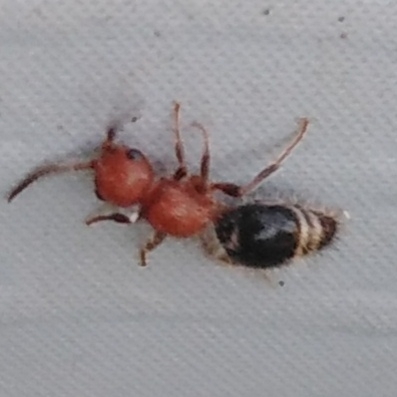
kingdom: Animalia
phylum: Arthropoda
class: Insecta
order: Hymenoptera
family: Mutillidae
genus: Cystomutilla
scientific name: Cystomutilla ruficeps
